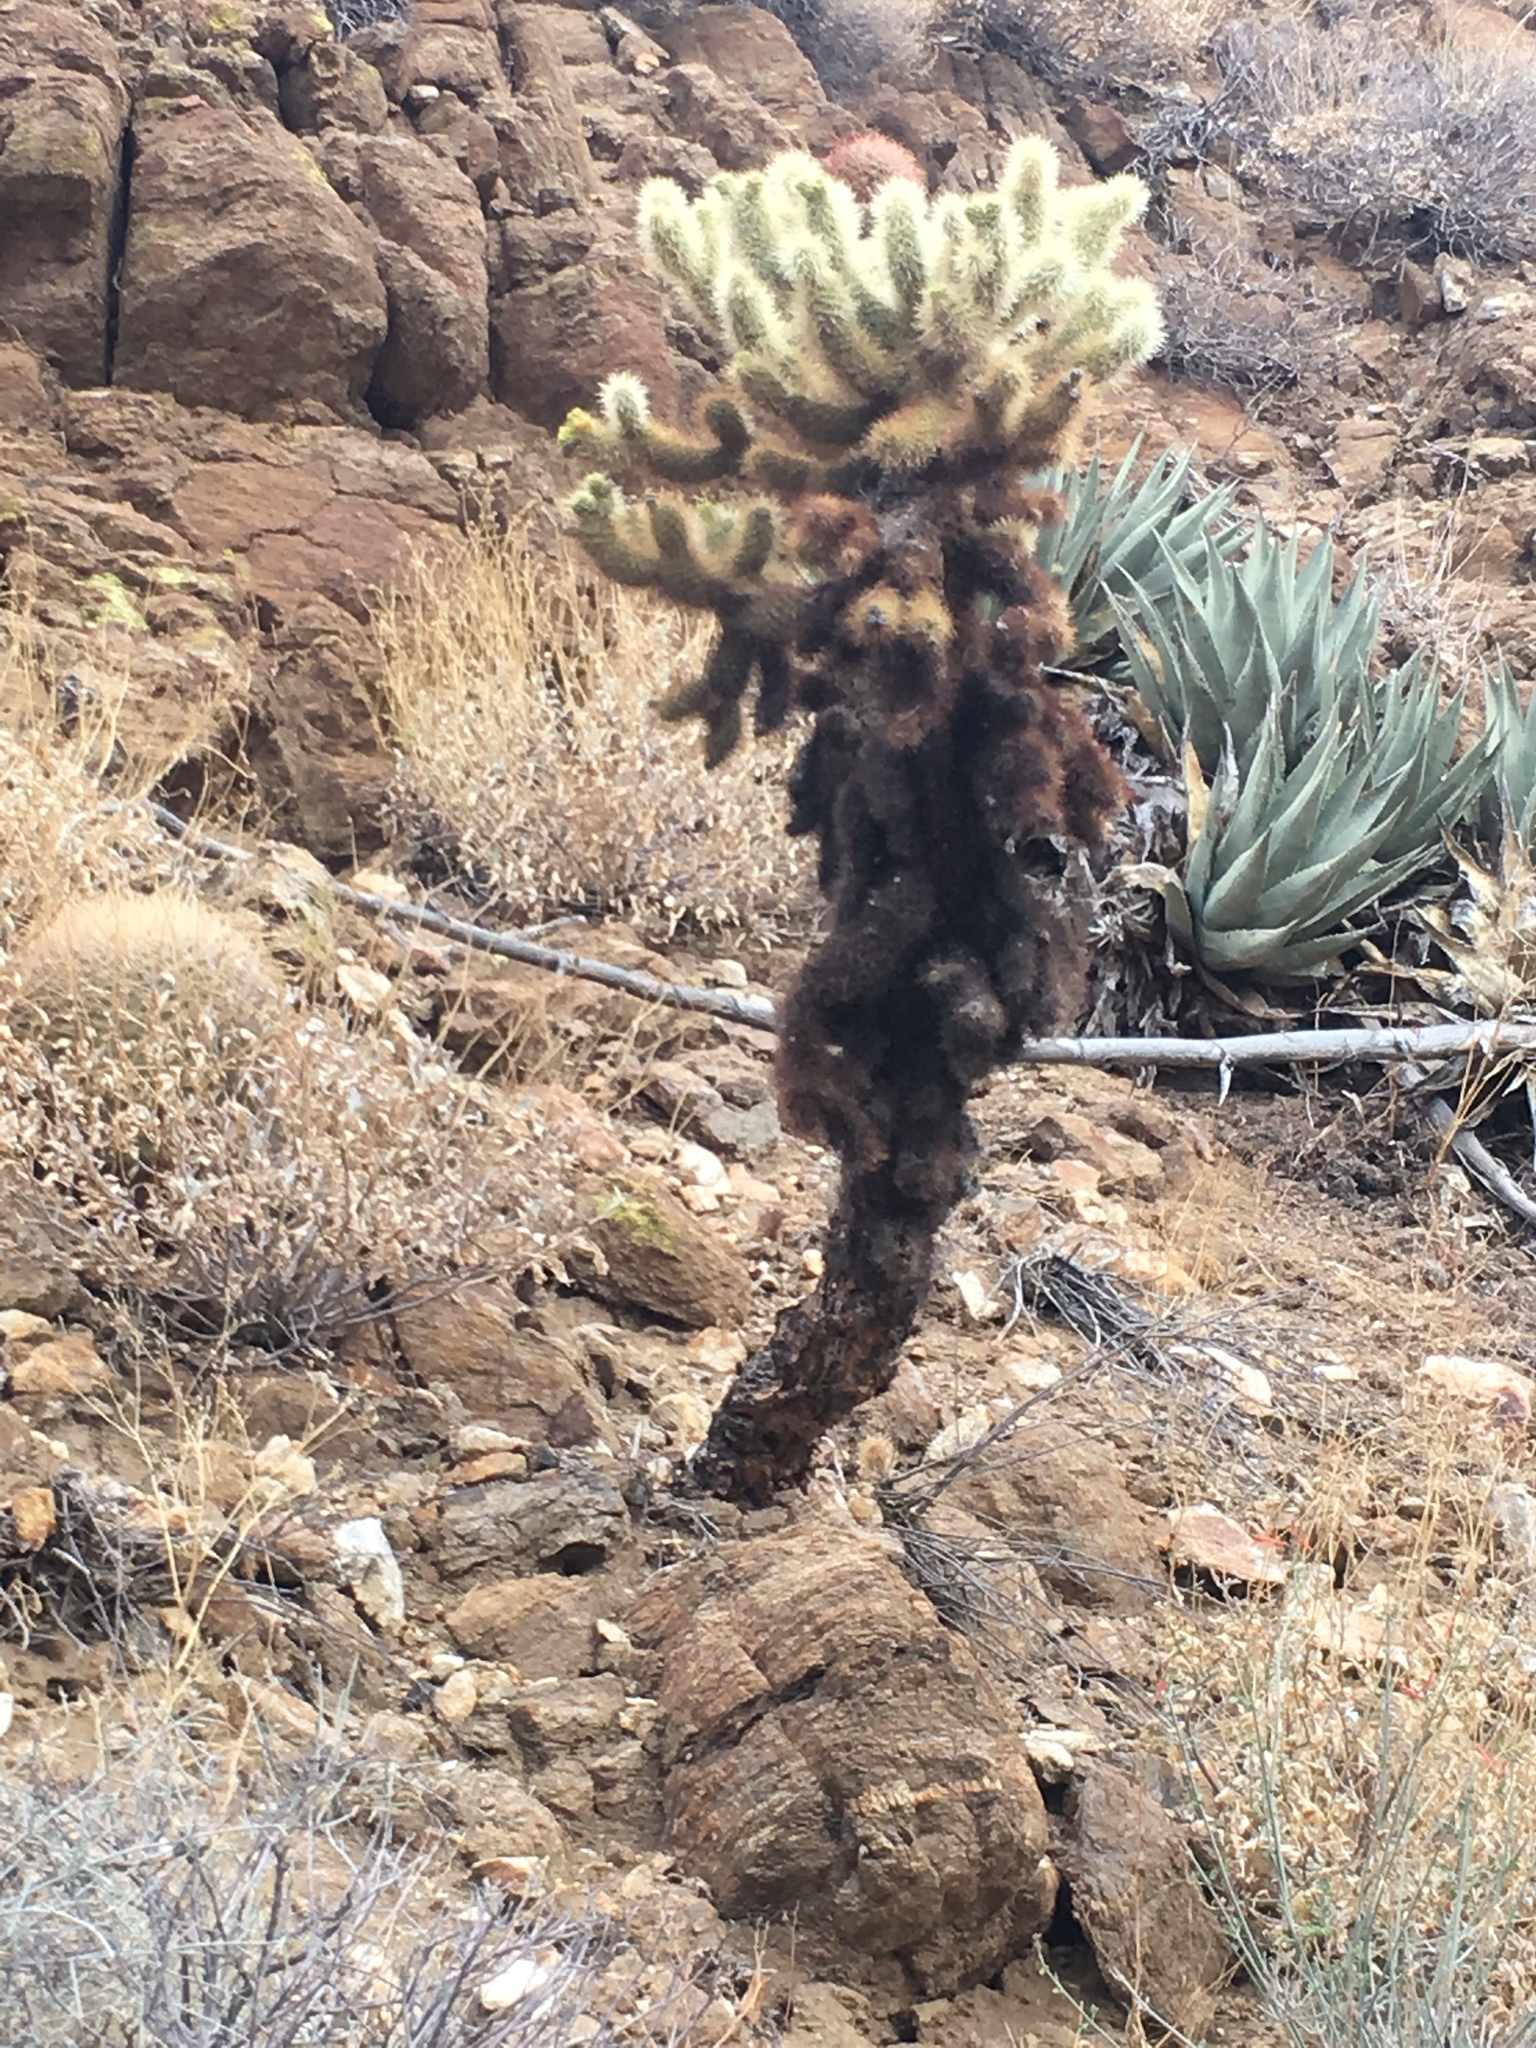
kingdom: Plantae
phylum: Tracheophyta
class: Magnoliopsida
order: Caryophyllales
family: Cactaceae
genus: Cylindropuntia
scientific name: Cylindropuntia fosbergii
